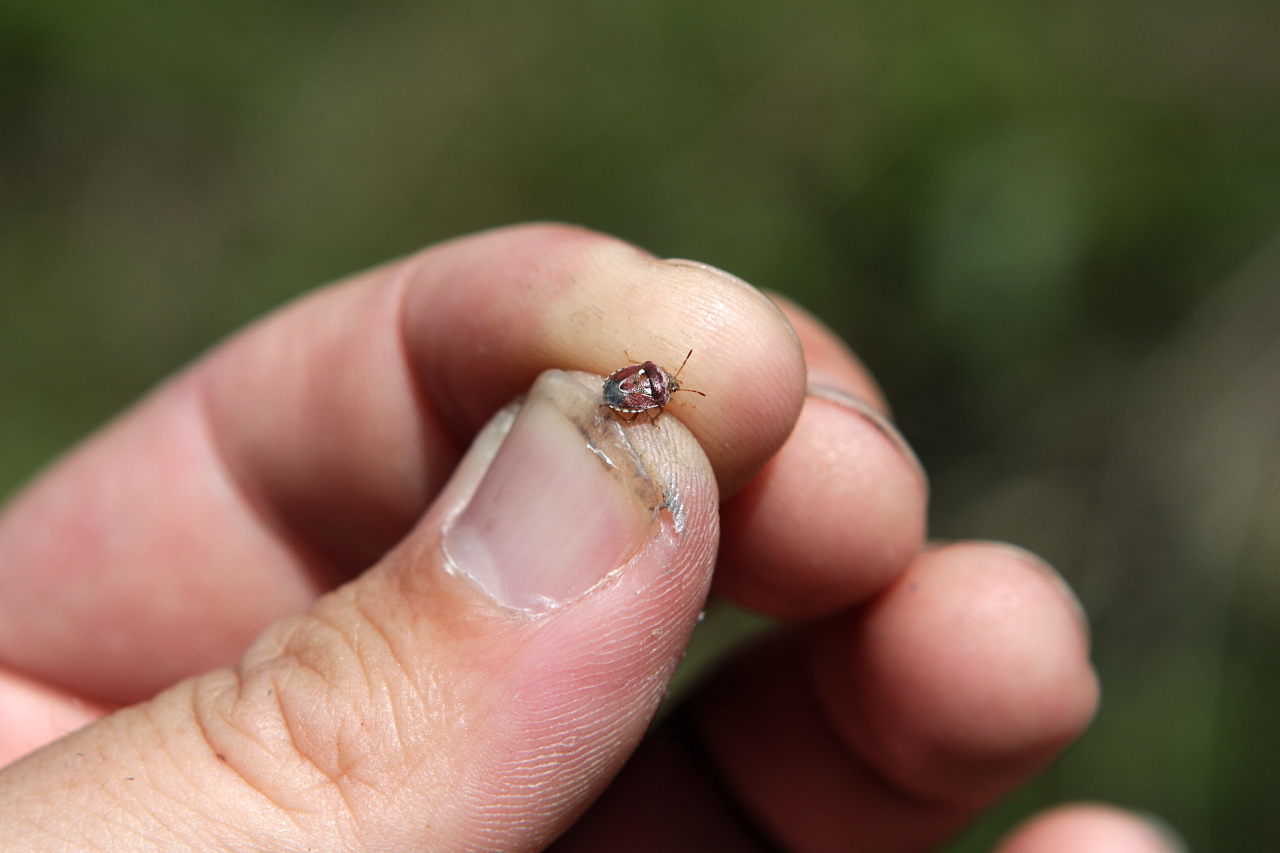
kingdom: Animalia
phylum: Arthropoda
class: Insecta
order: Hemiptera
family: Pentatomidae
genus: Stagonomus
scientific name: Stagonomus bipunctatus
